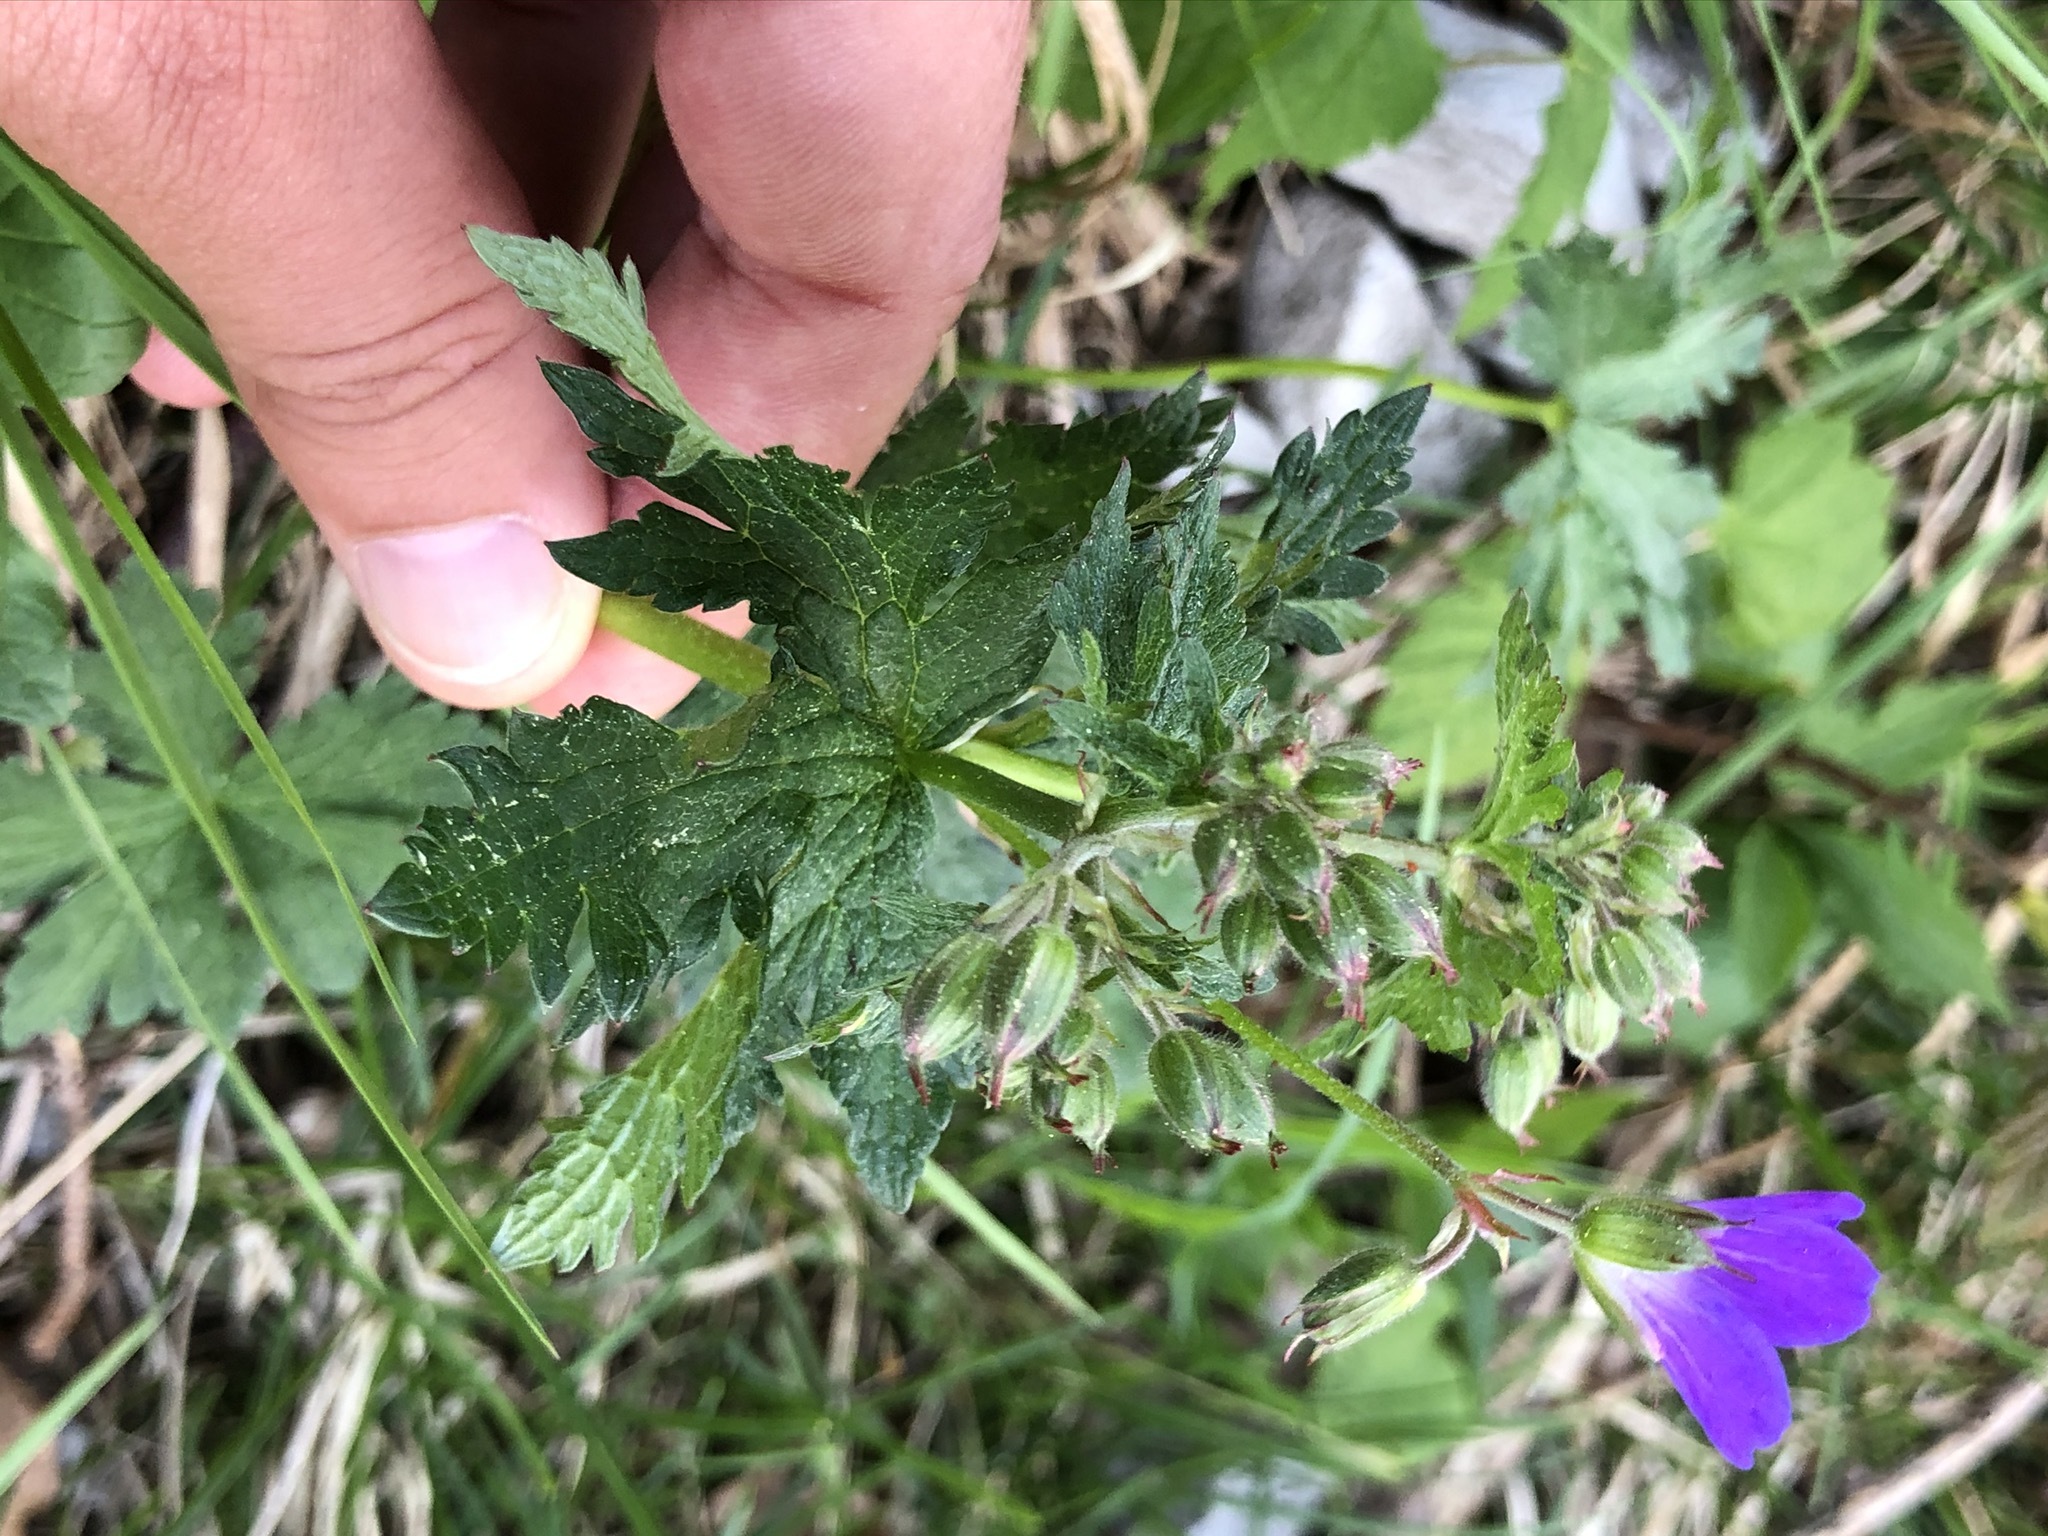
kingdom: Plantae
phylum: Tracheophyta
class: Magnoliopsida
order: Geraniales
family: Geraniaceae
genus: Geranium
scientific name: Geranium sylvaticum
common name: Wood crane's-bill
